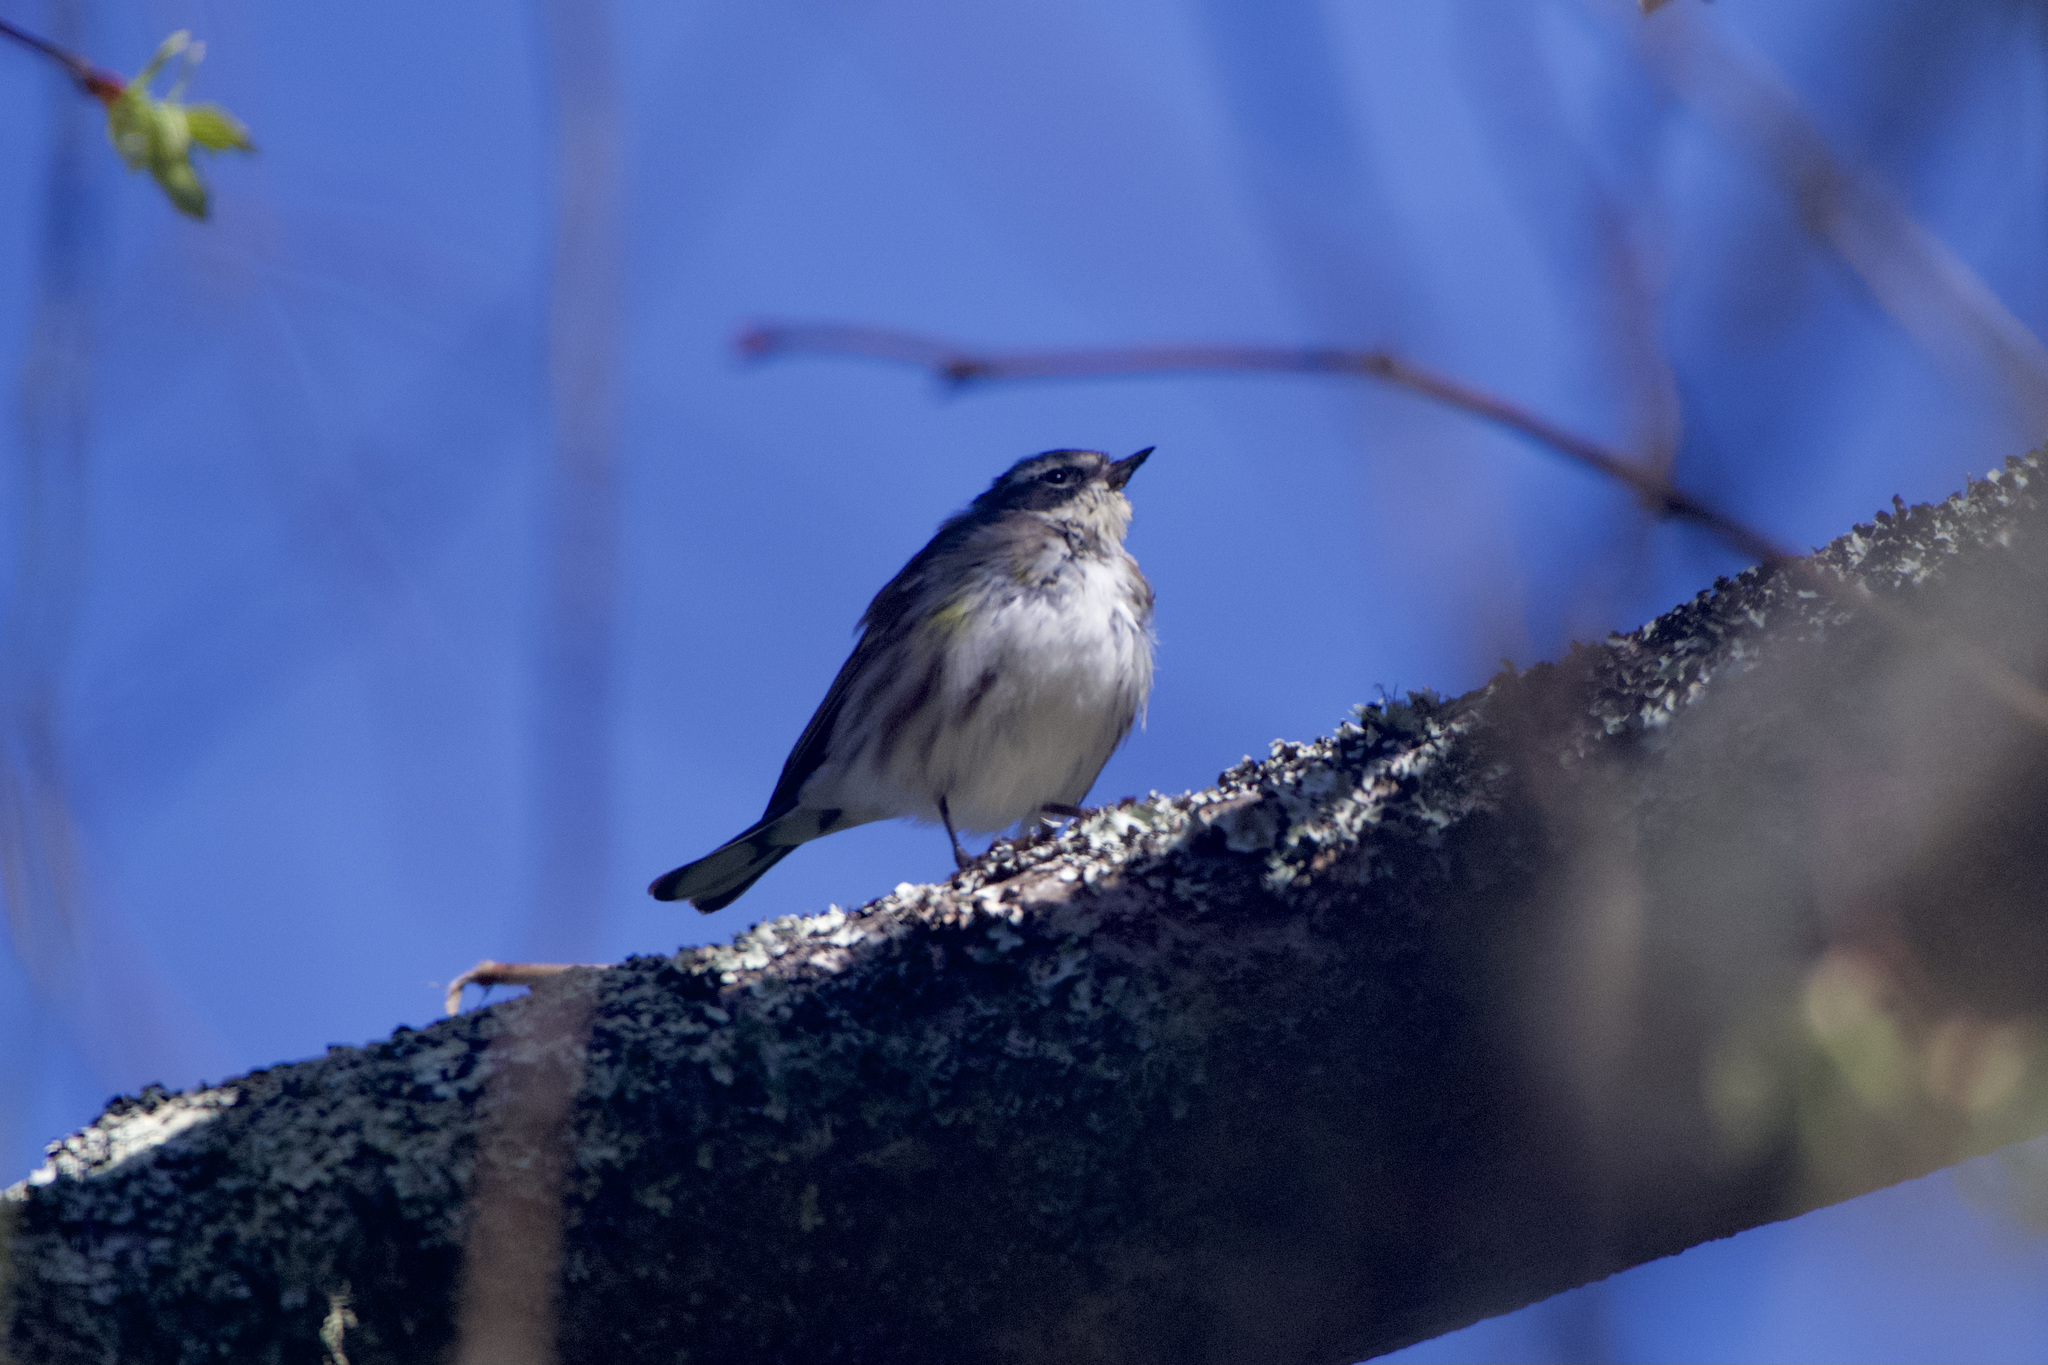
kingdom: Animalia
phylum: Chordata
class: Aves
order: Passeriformes
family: Parulidae
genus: Setophaga
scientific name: Setophaga coronata
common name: Myrtle warbler
